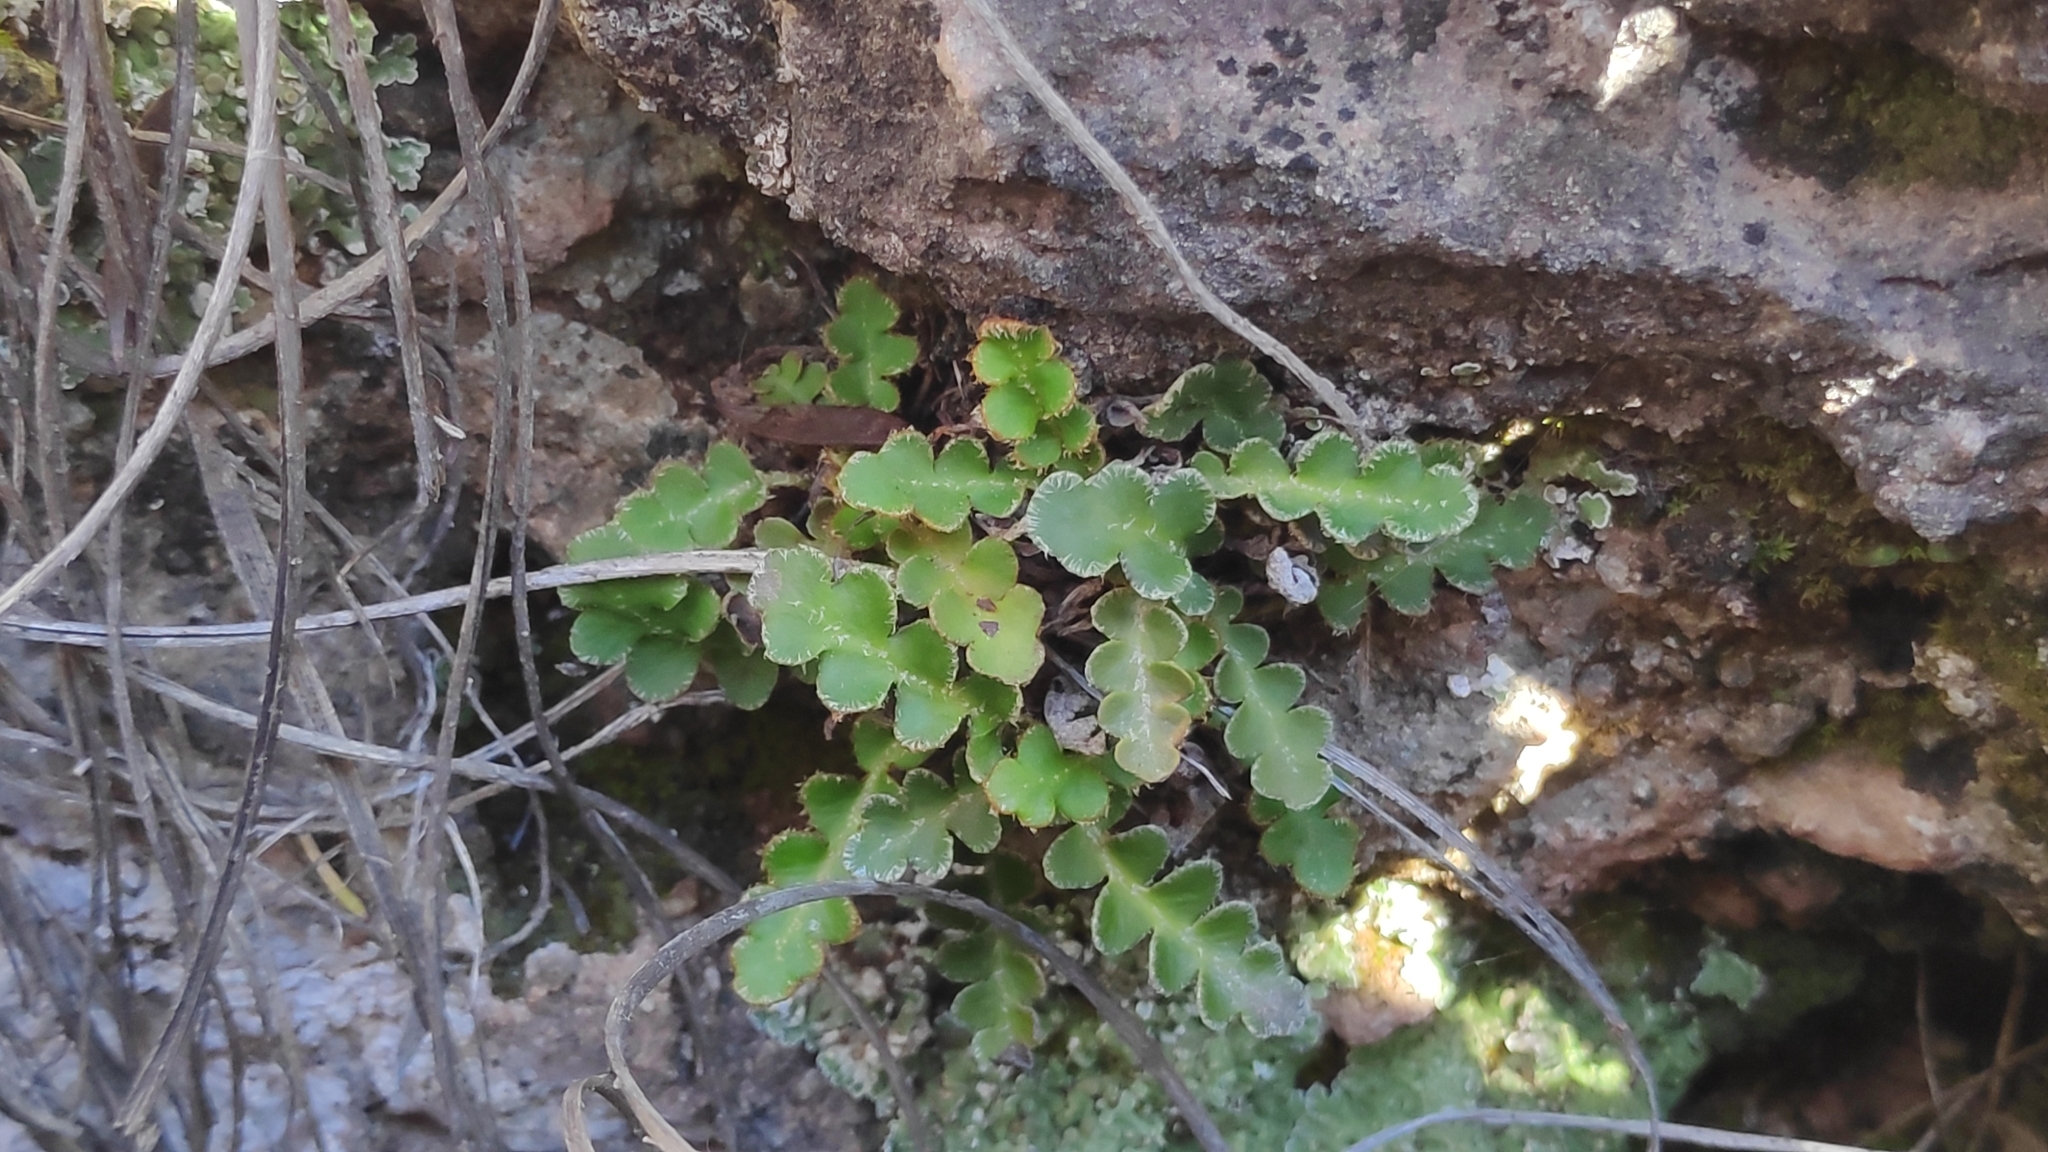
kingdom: Plantae
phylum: Tracheophyta
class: Polypodiopsida
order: Polypodiales
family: Aspleniaceae
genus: Asplenium
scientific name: Asplenium ceterach
